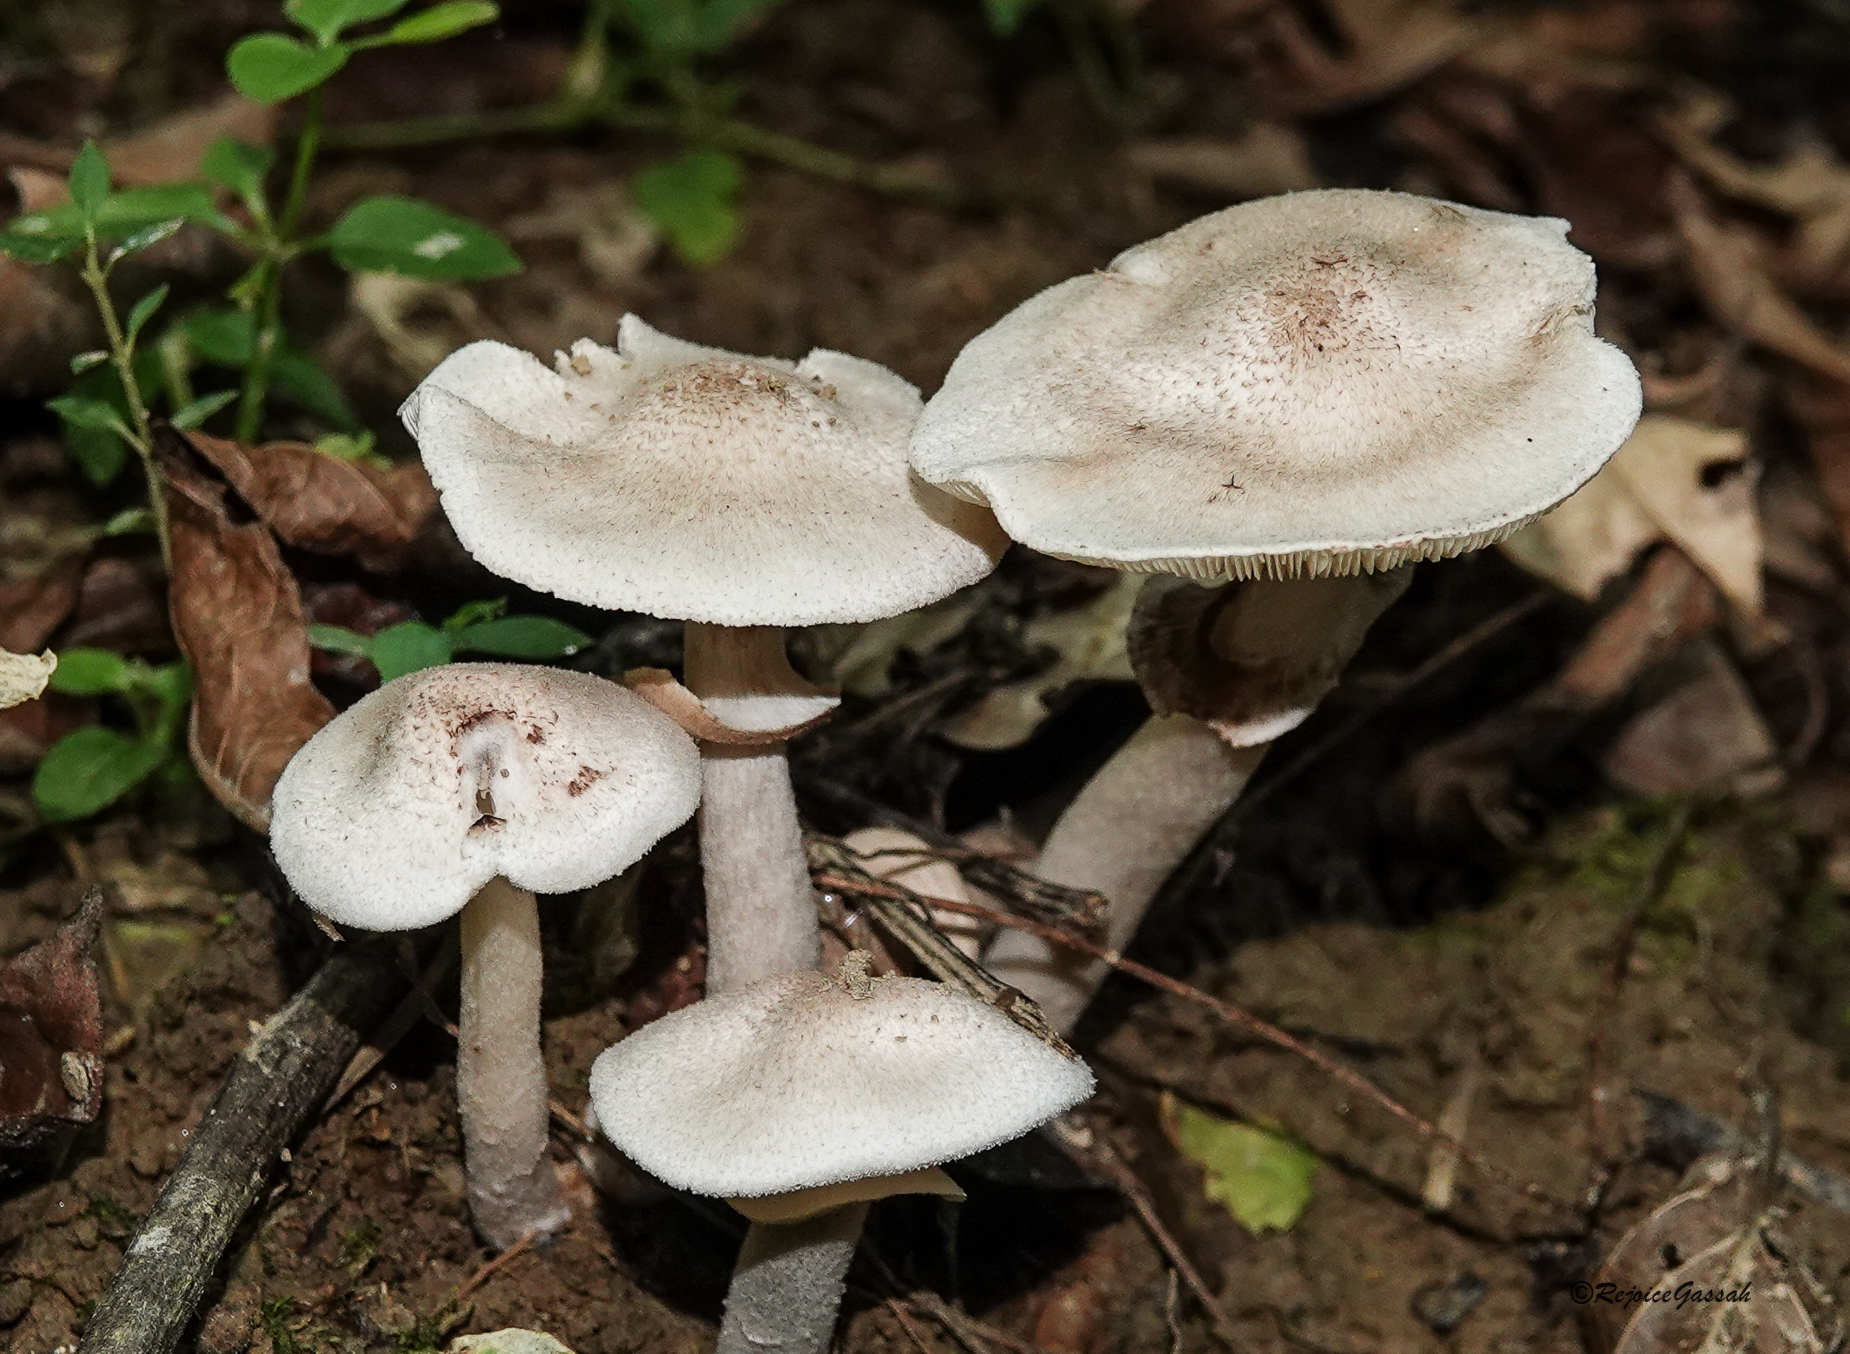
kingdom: Fungi
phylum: Basidiomycota
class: Agaricomycetes
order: Polyporales
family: Polyporaceae
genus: Lentinus
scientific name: Lentinus tigrinus
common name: Tiger sawgill
